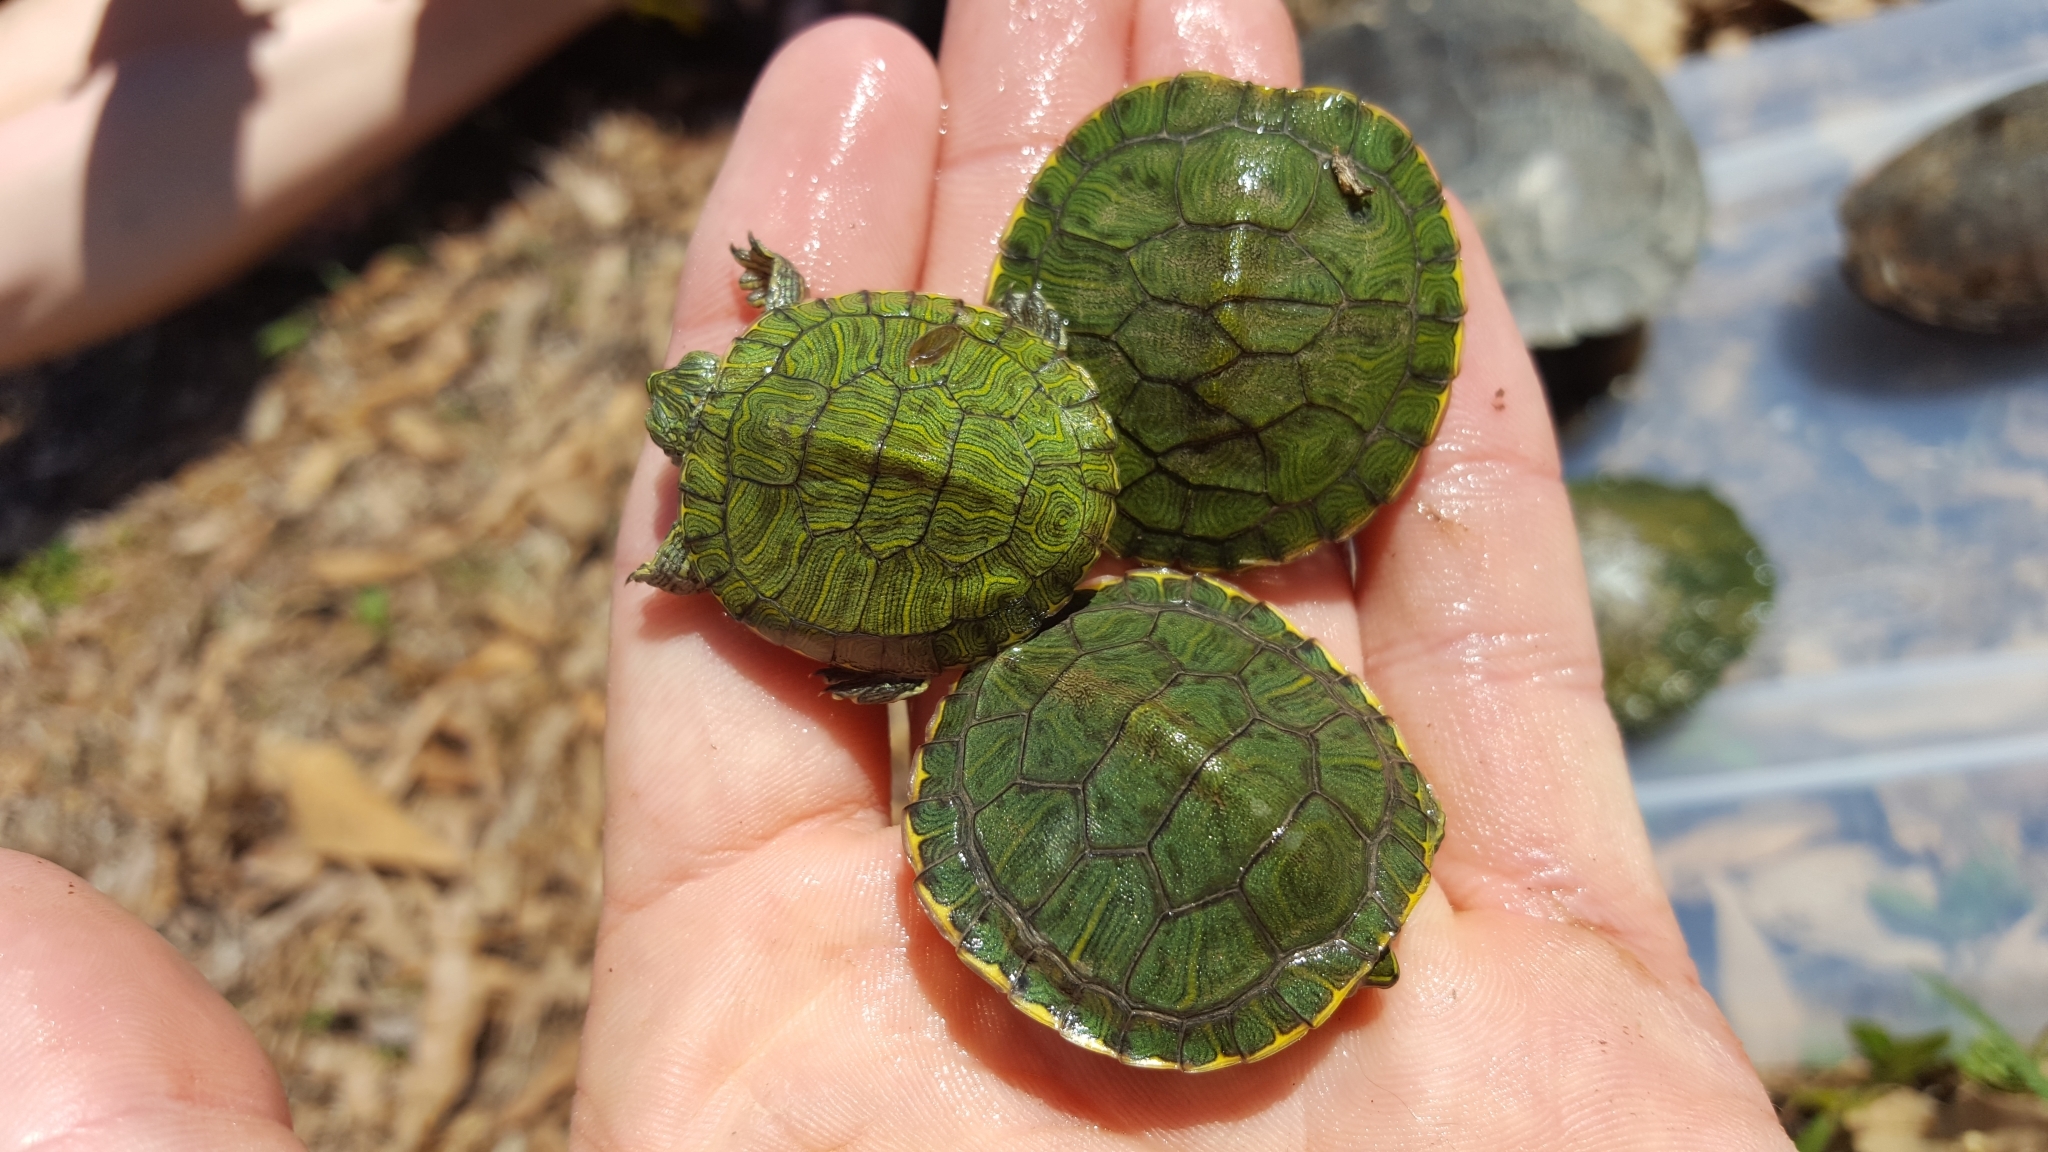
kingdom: Animalia
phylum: Chordata
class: Testudines
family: Emydidae
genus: Trachemys
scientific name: Trachemys scripta
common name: Slider
